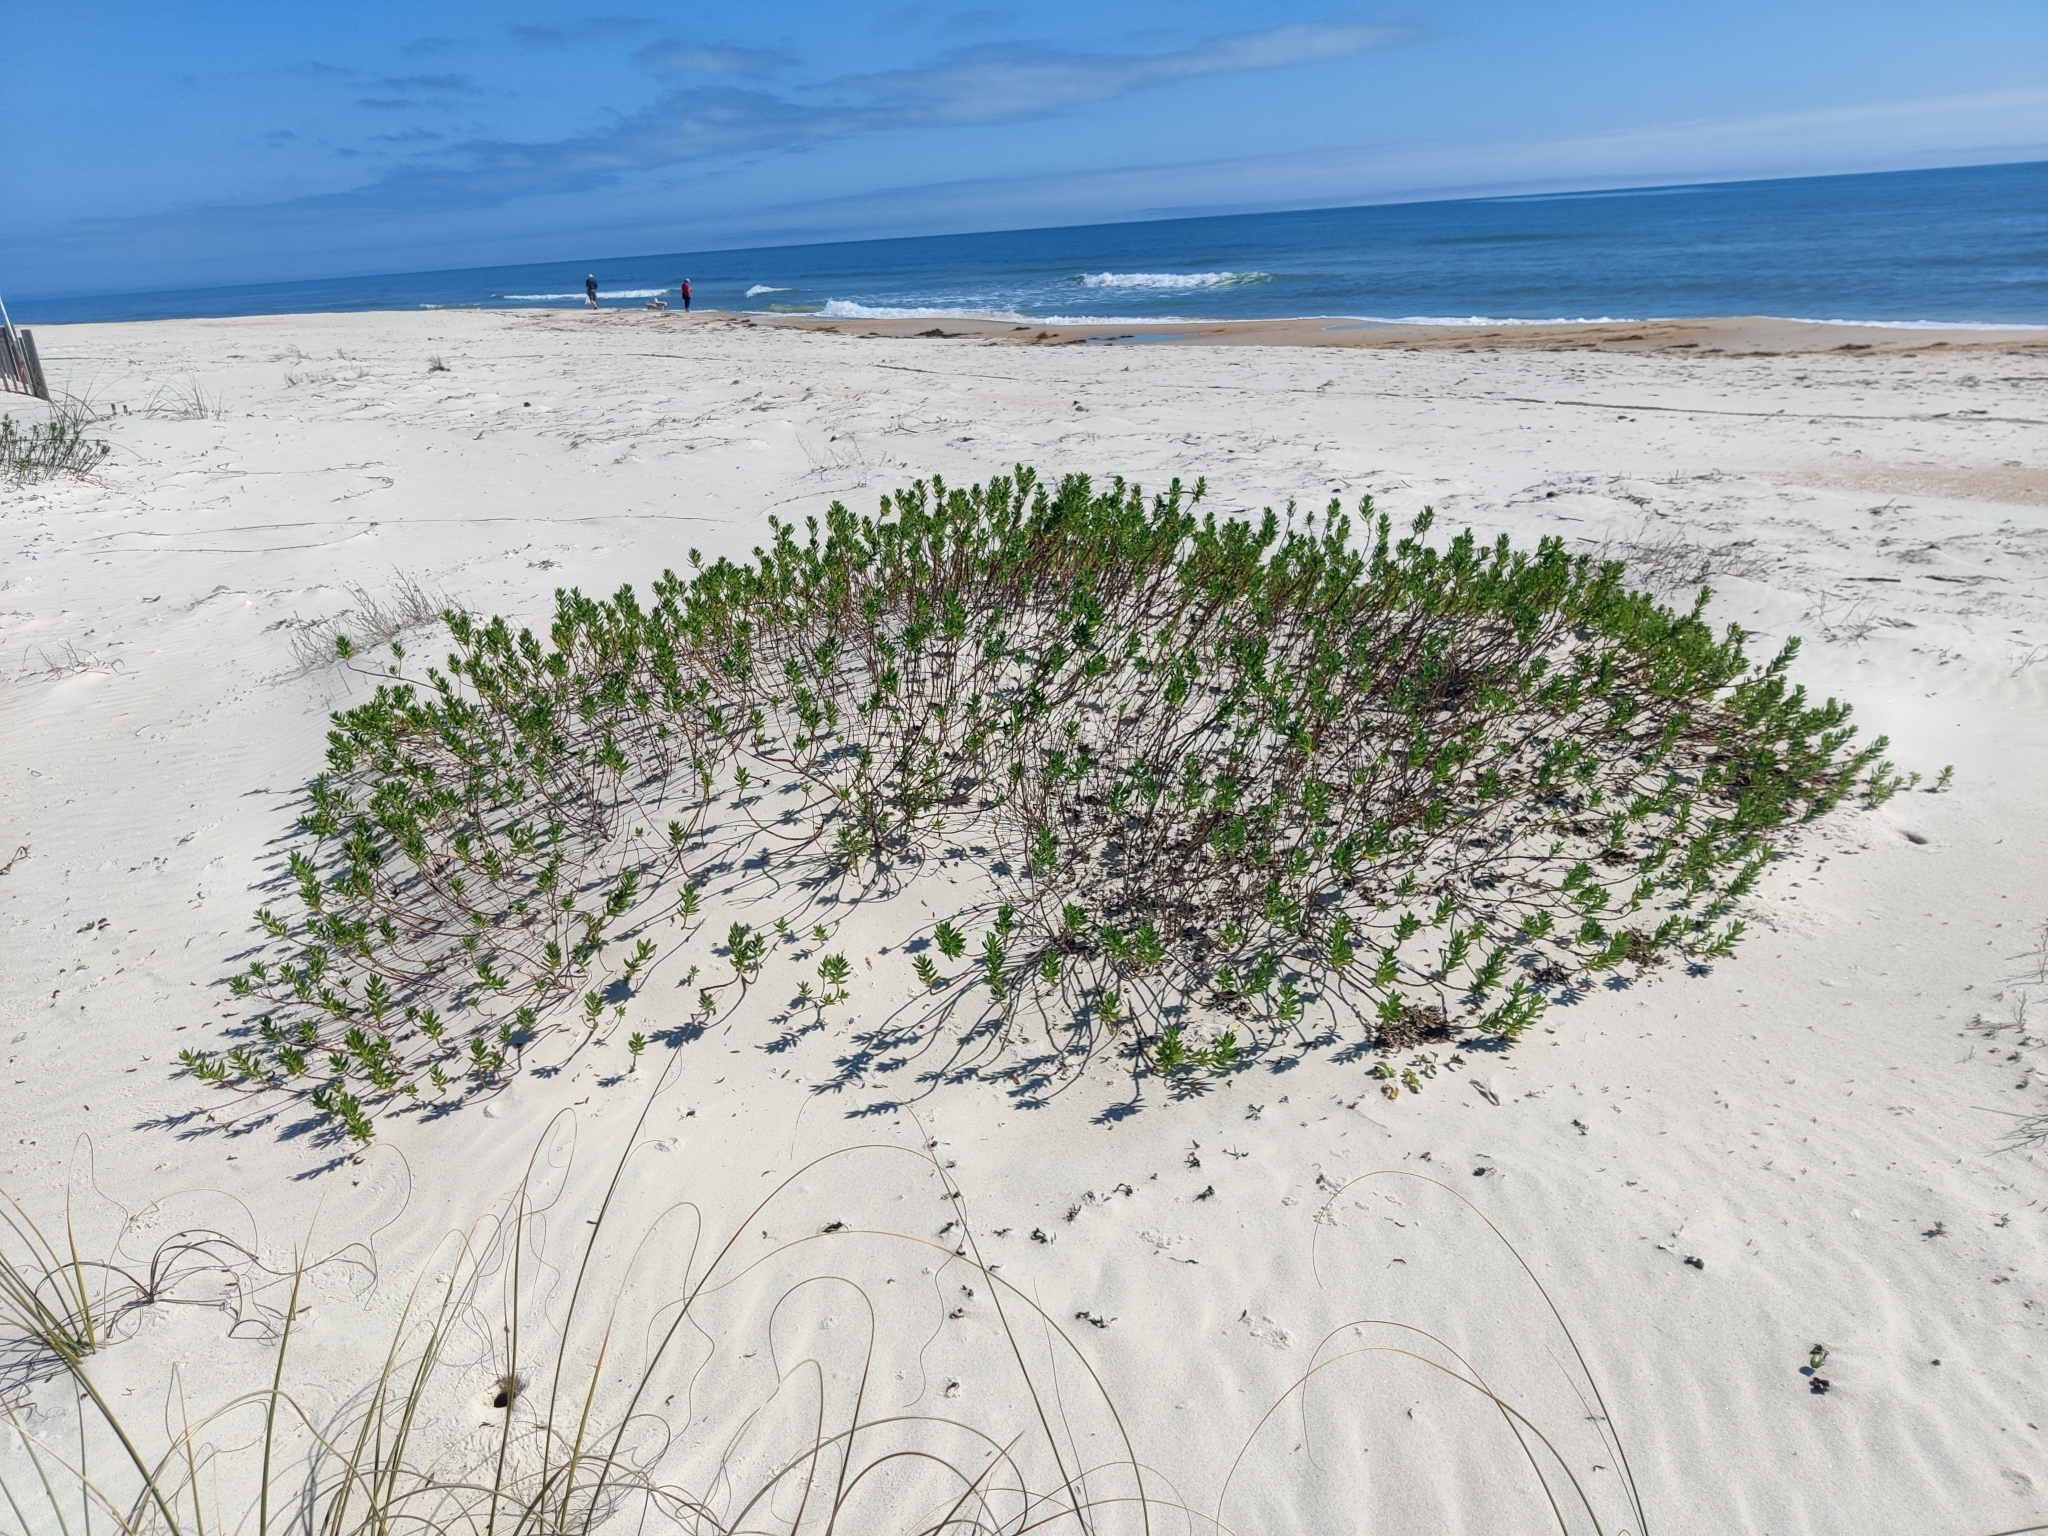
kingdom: Plantae
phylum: Tracheophyta
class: Magnoliopsida
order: Asterales
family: Asteraceae
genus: Iva
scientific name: Iva imbricata
